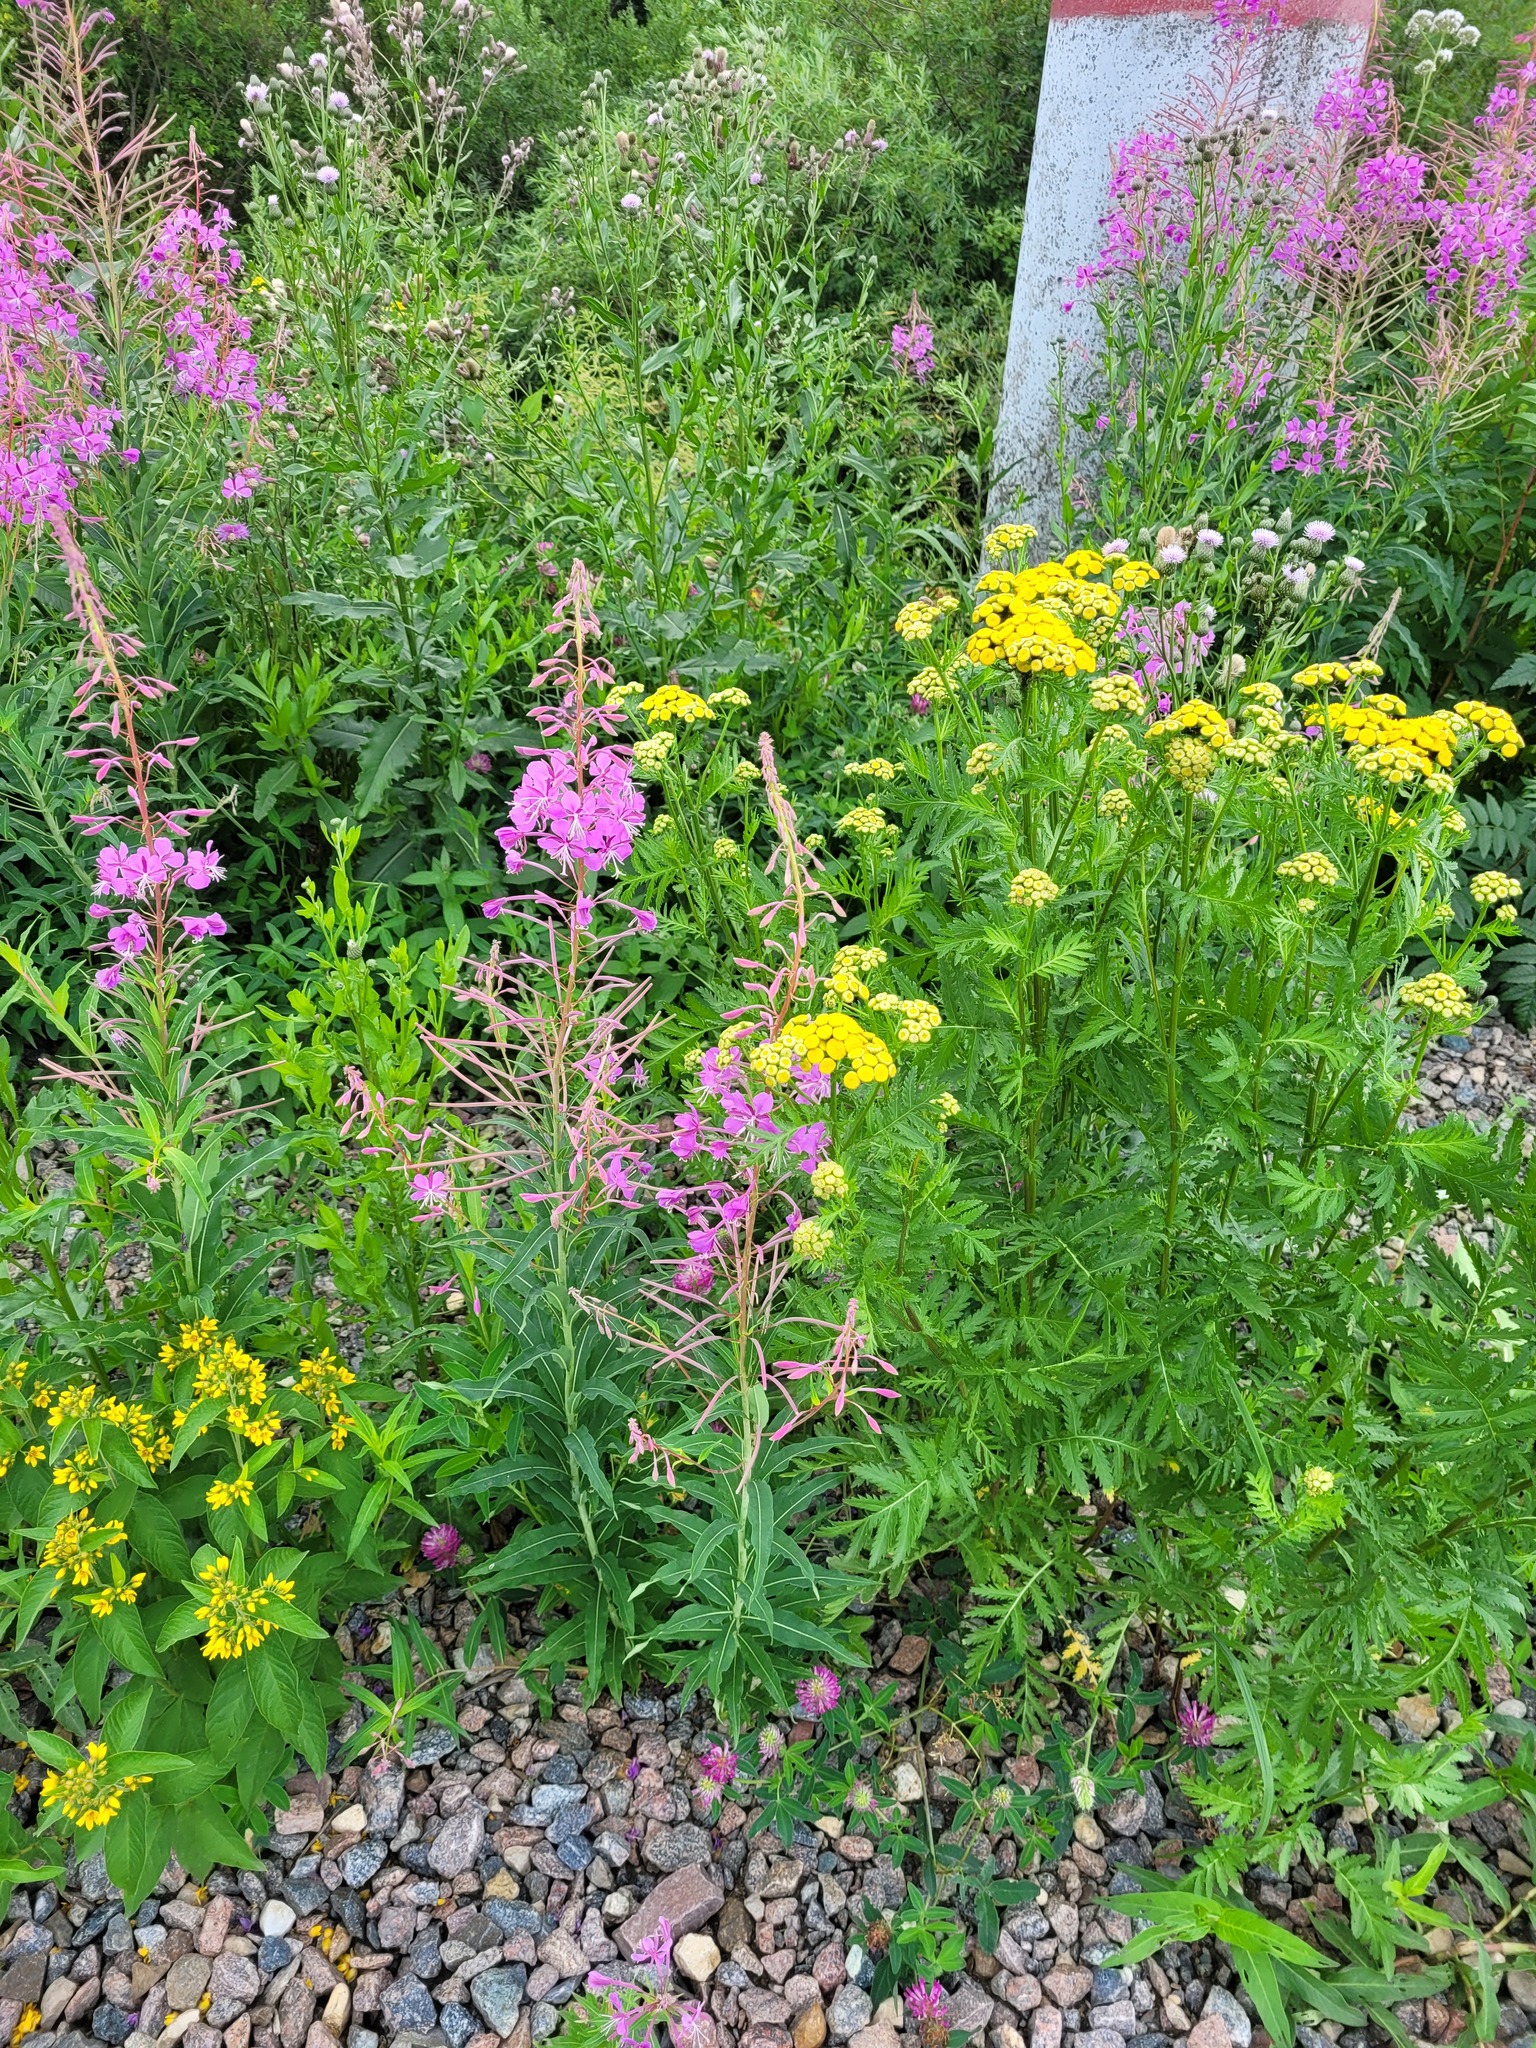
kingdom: Plantae
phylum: Tracheophyta
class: Magnoliopsida
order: Myrtales
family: Onagraceae
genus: Chamaenerion
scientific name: Chamaenerion angustifolium
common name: Fireweed
